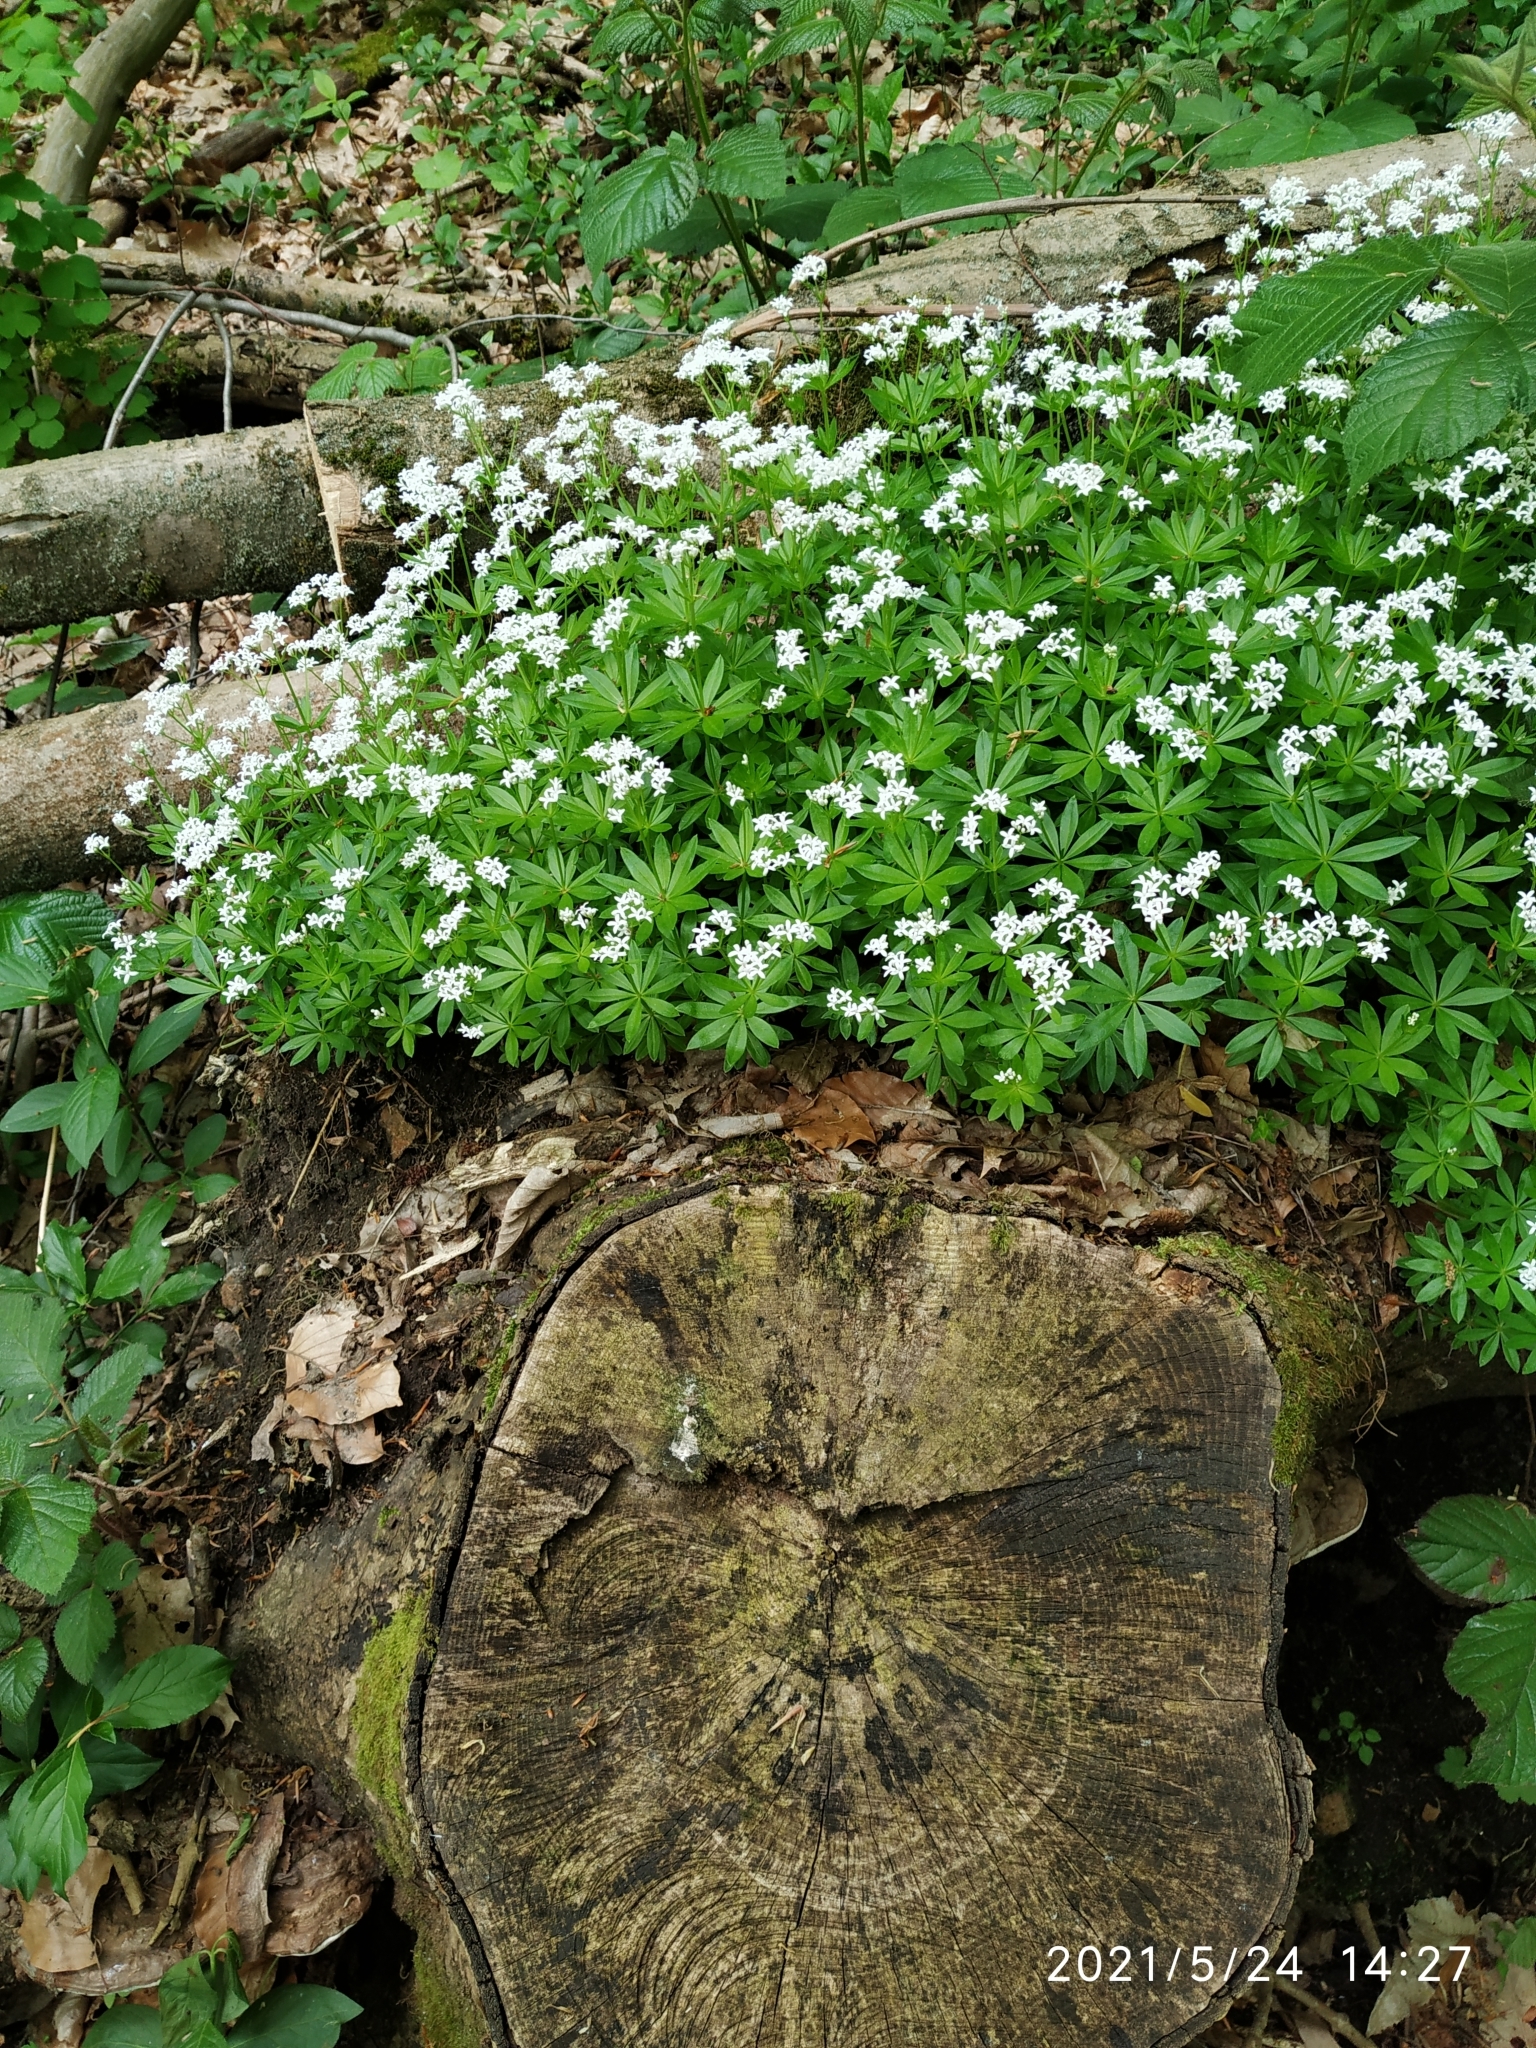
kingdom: Plantae
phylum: Tracheophyta
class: Magnoliopsida
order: Gentianales
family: Rubiaceae
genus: Galium
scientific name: Galium odoratum
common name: Sweet woodruff
